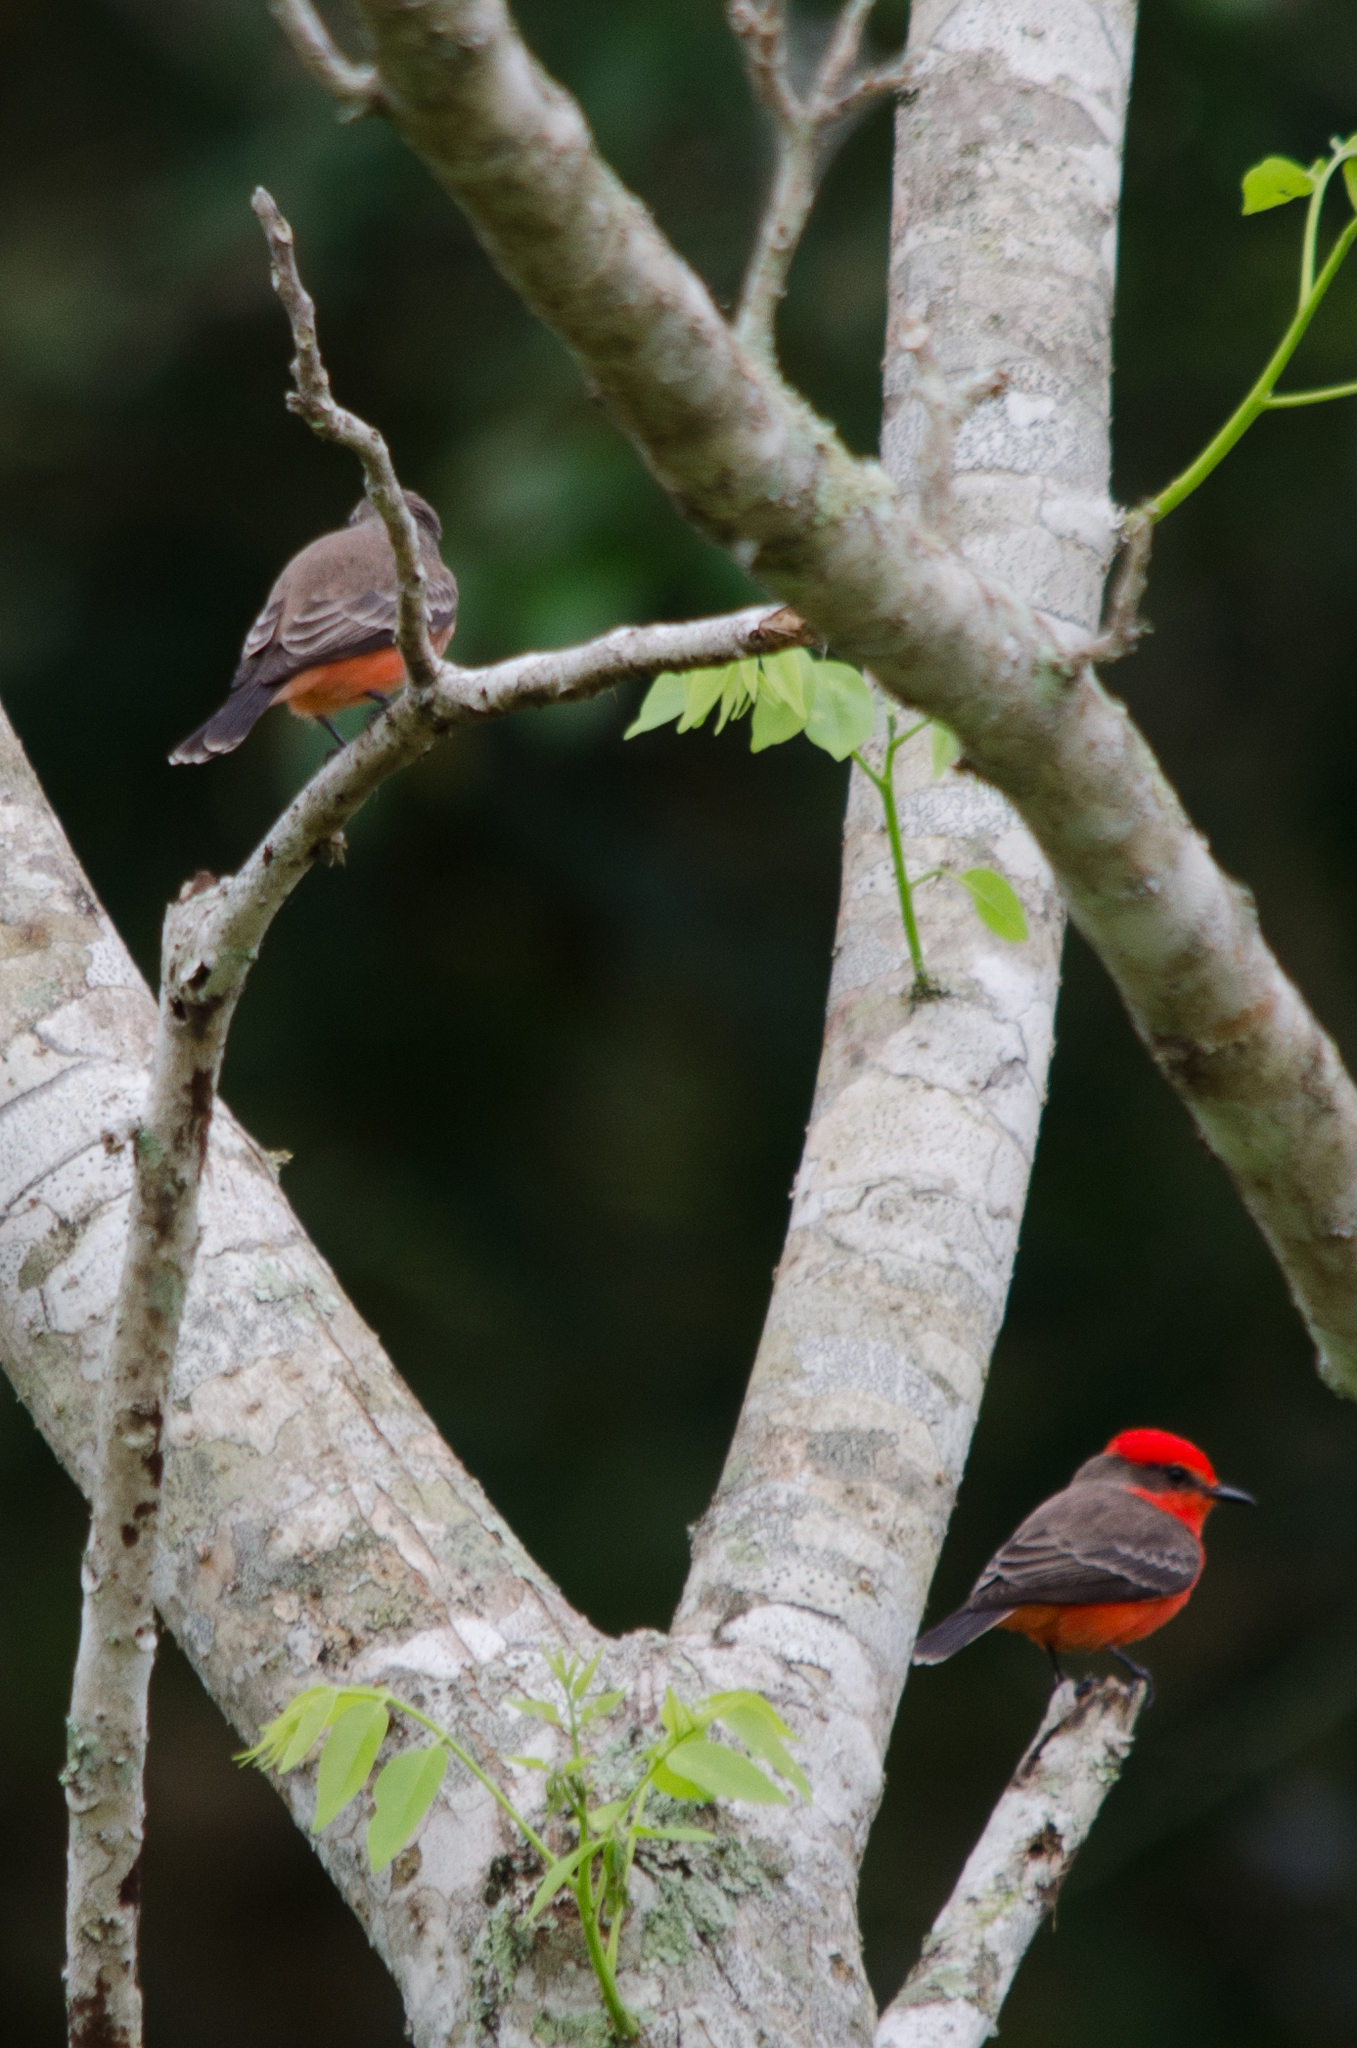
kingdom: Animalia
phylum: Chordata
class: Aves
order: Passeriformes
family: Tyrannidae
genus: Pyrocephalus
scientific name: Pyrocephalus rubinus
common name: Vermilion flycatcher
